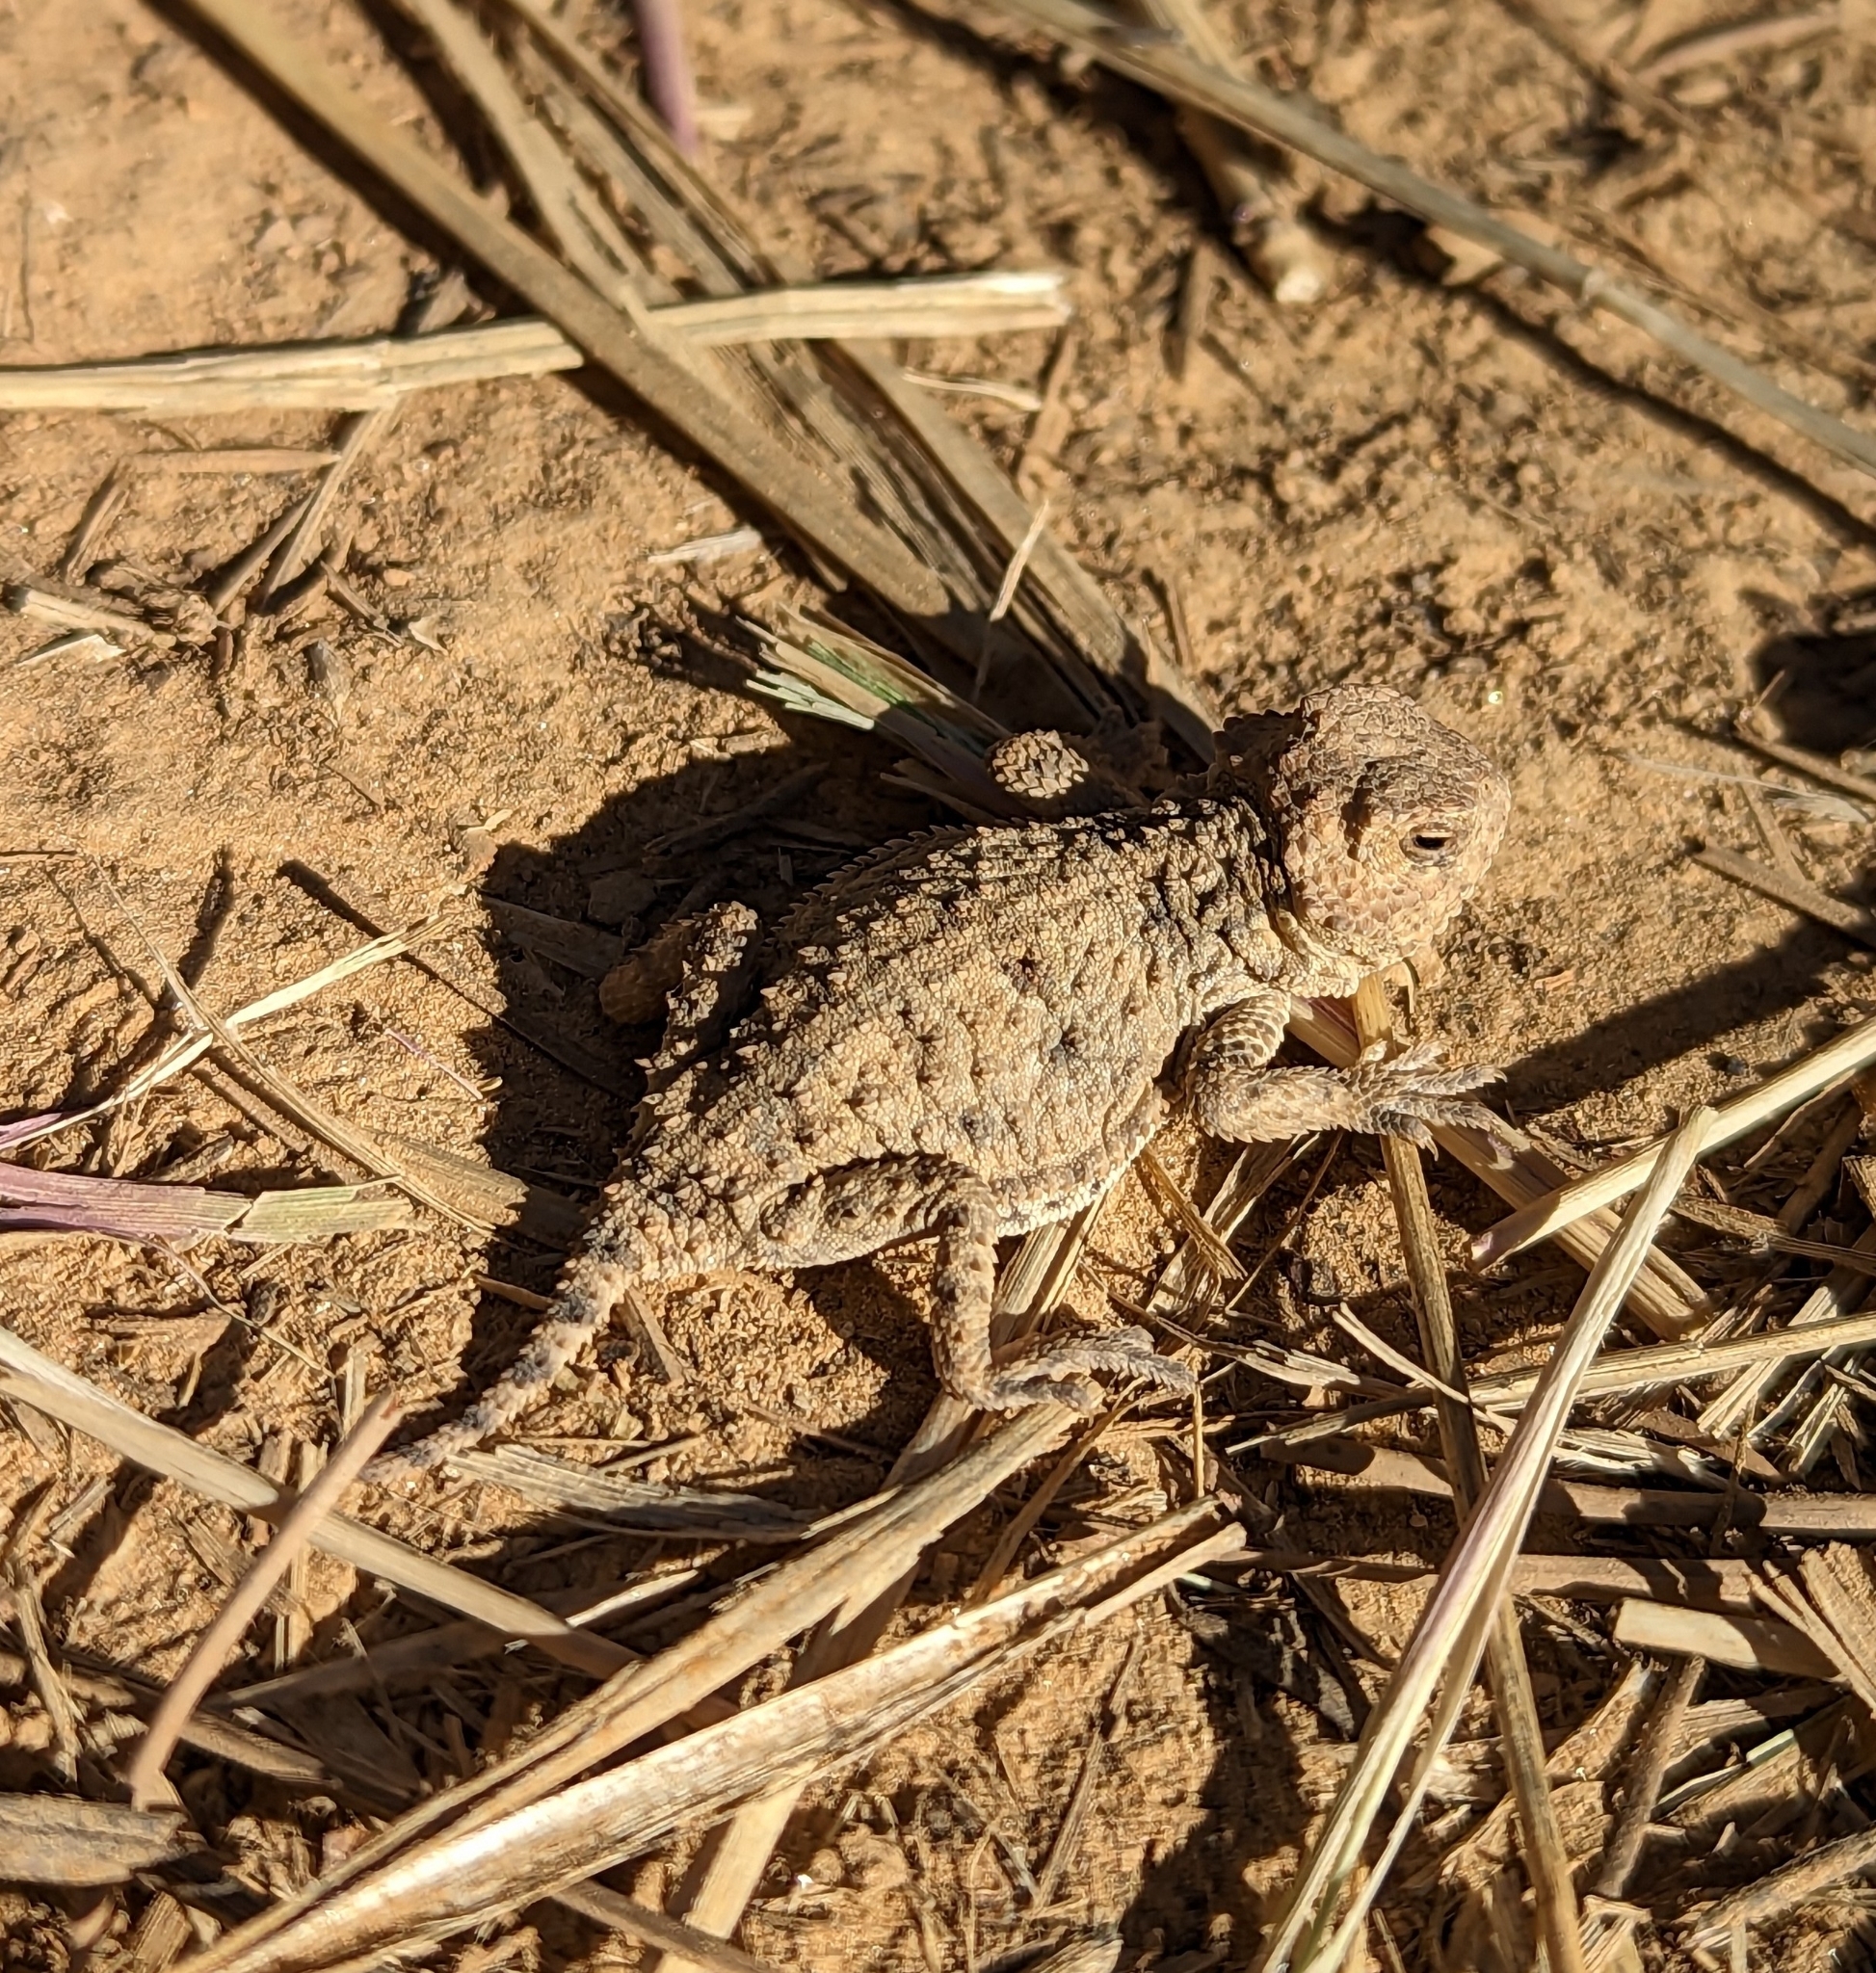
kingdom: Animalia
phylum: Chordata
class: Squamata
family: Phrynosomatidae
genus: Phrynosoma
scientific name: Phrynosoma hernandesi
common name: Greater short-horned lizard
